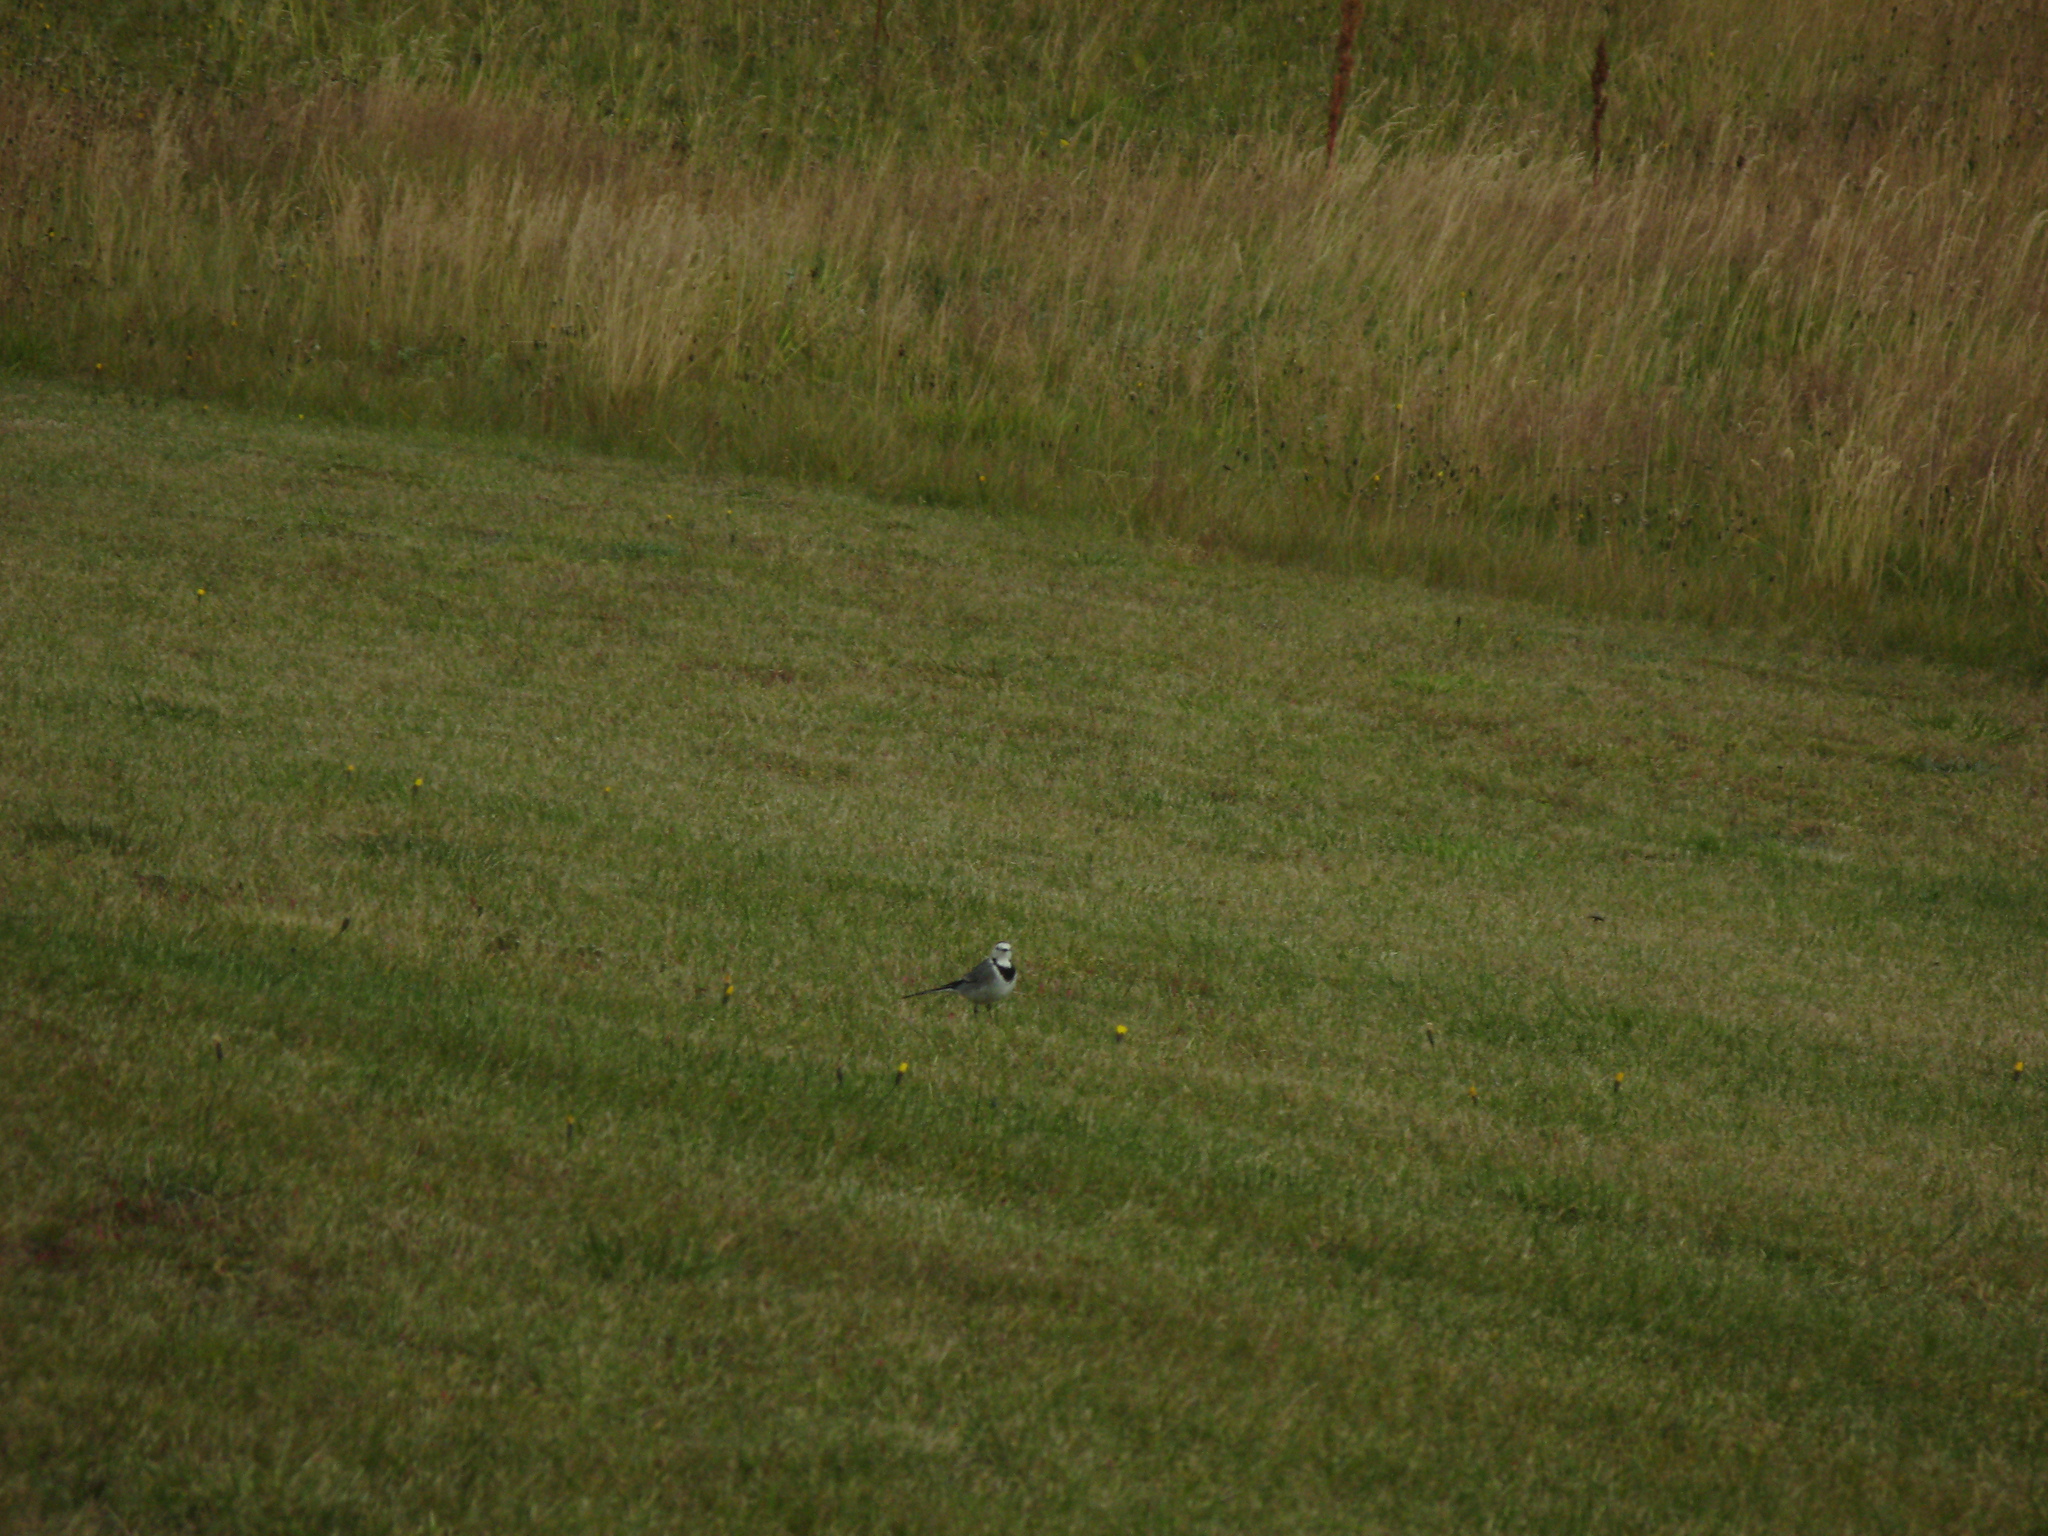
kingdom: Animalia
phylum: Chordata
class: Aves
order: Passeriformes
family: Motacillidae
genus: Motacilla
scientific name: Motacilla alba
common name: White wagtail
